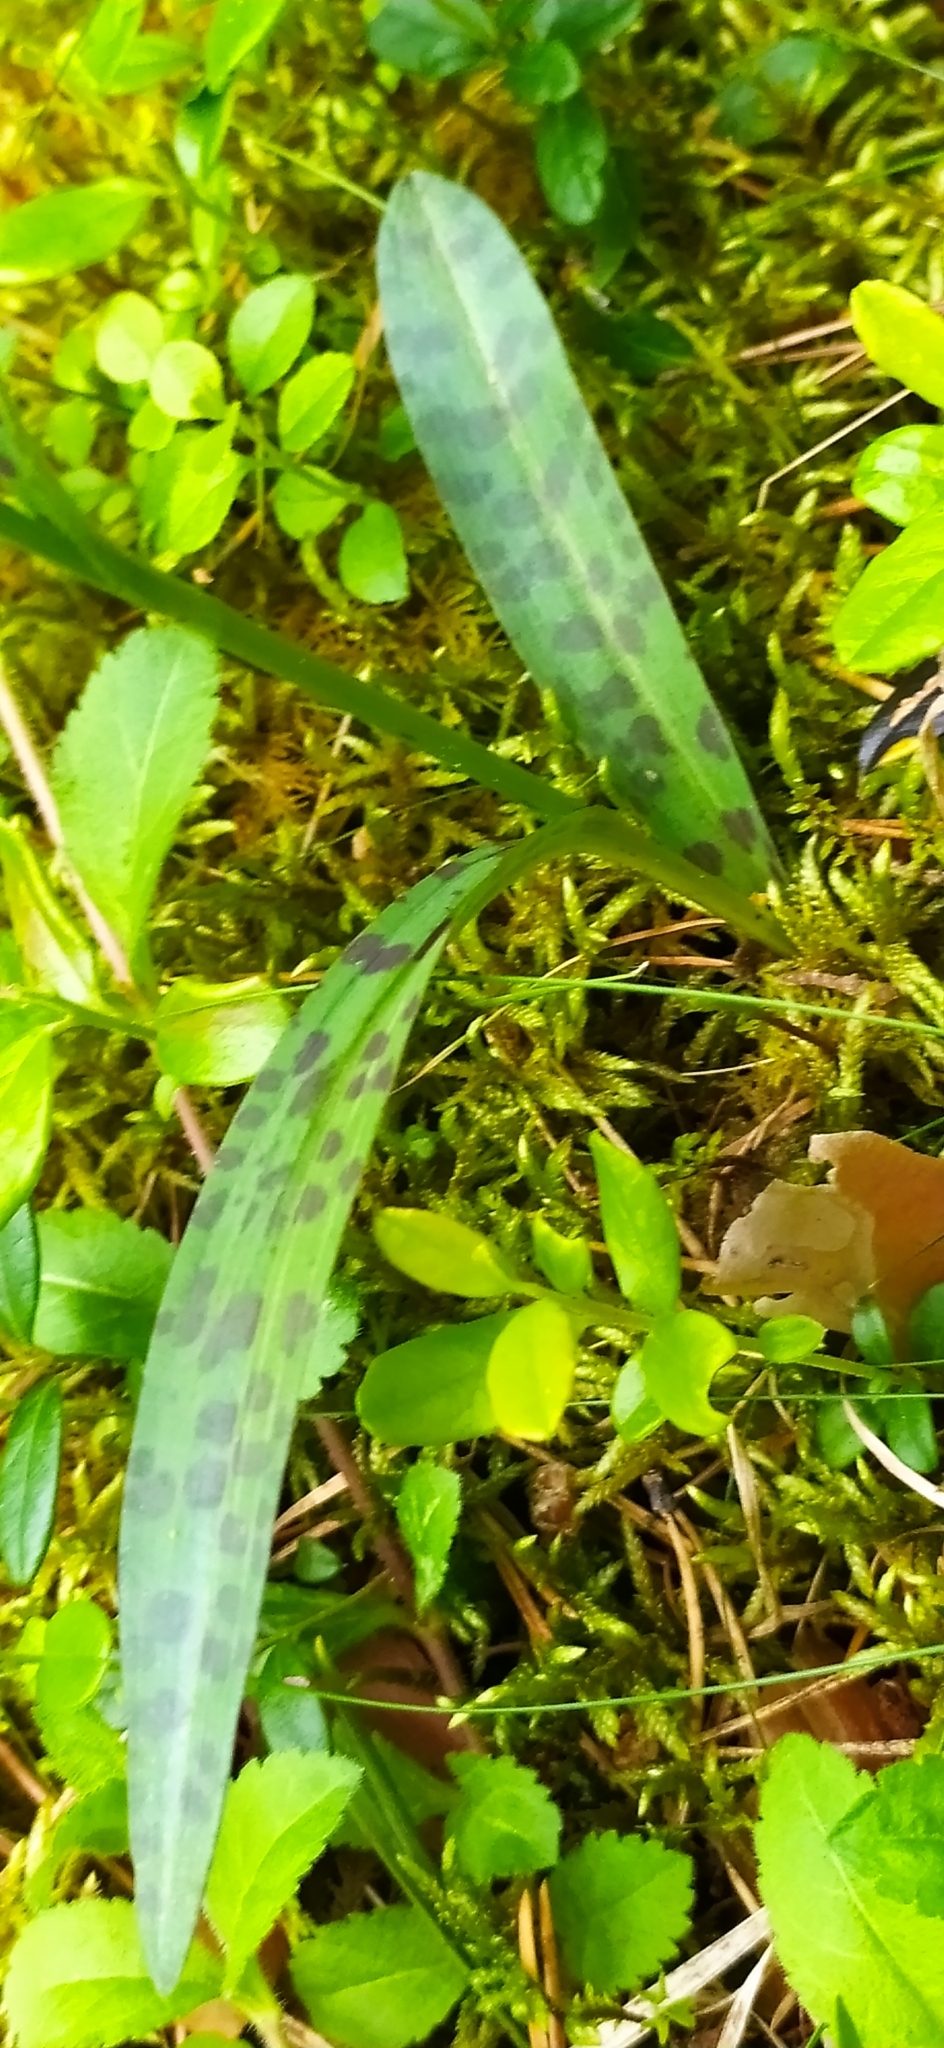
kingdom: Plantae
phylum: Tracheophyta
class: Liliopsida
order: Asparagales
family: Orchidaceae
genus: Dactylorhiza
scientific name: Dactylorhiza maculata
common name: Heath spotted-orchid
